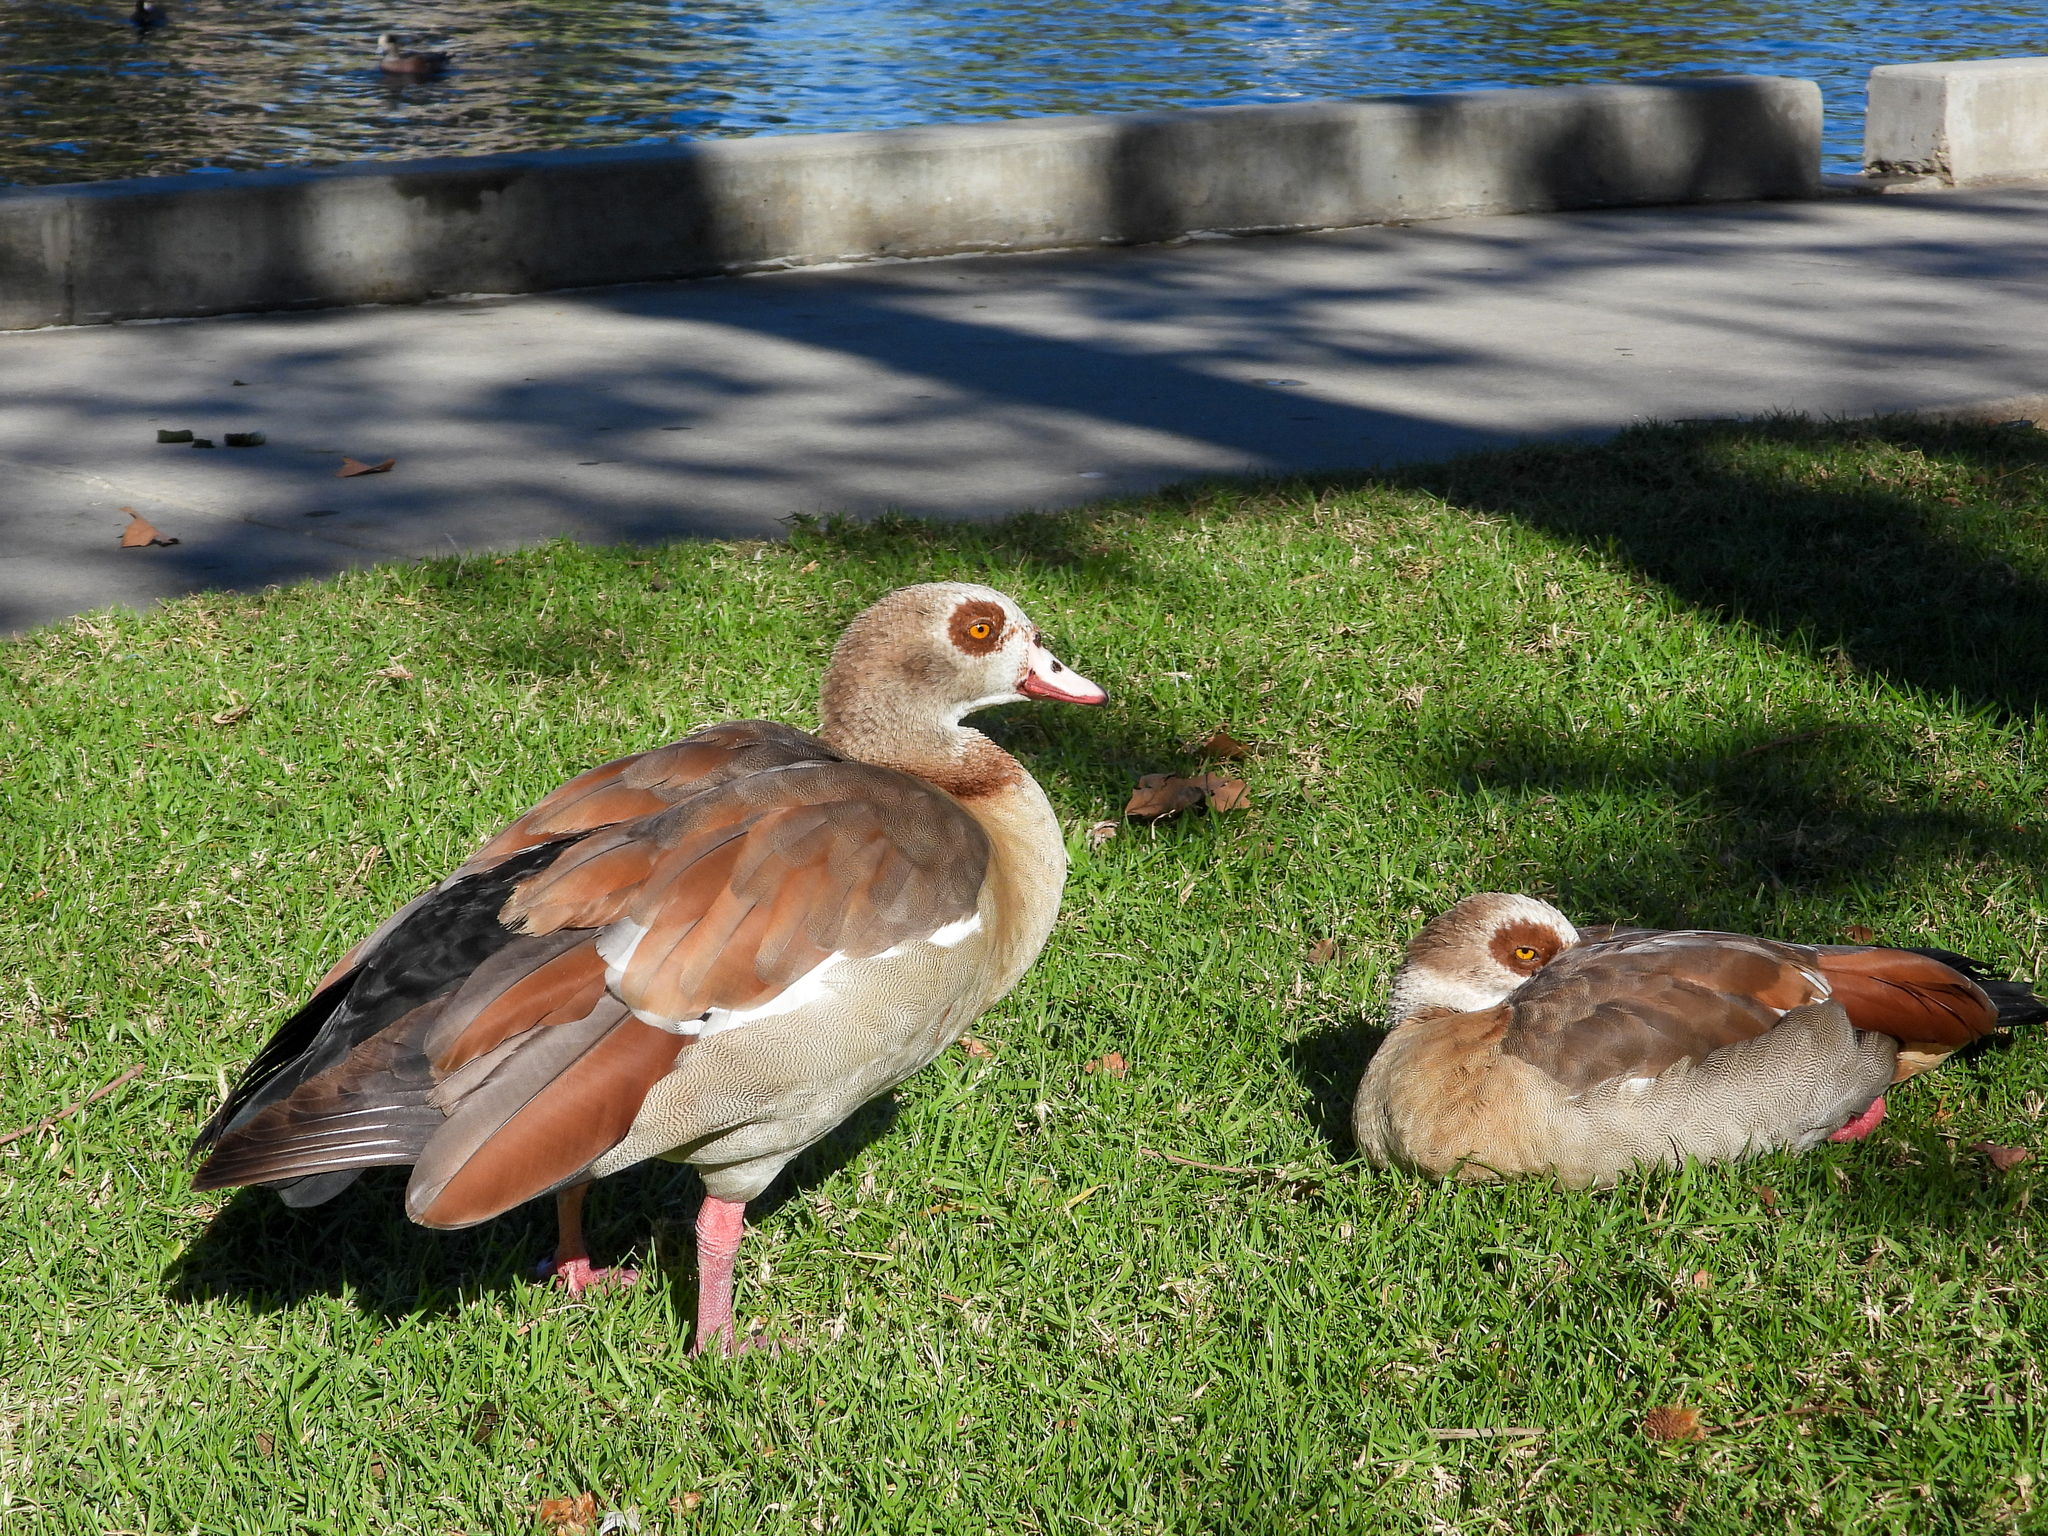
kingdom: Animalia
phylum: Chordata
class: Aves
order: Anseriformes
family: Anatidae
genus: Alopochen
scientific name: Alopochen aegyptiaca
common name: Egyptian goose
